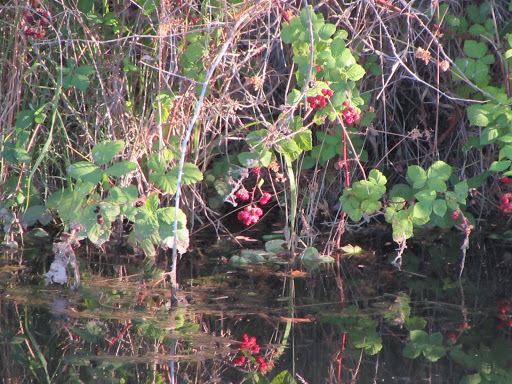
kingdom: Plantae
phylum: Tracheophyta
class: Magnoliopsida
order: Rosales
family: Rosaceae
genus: Rubus
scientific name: Rubus armeniacus
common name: Himalayan blackberry
